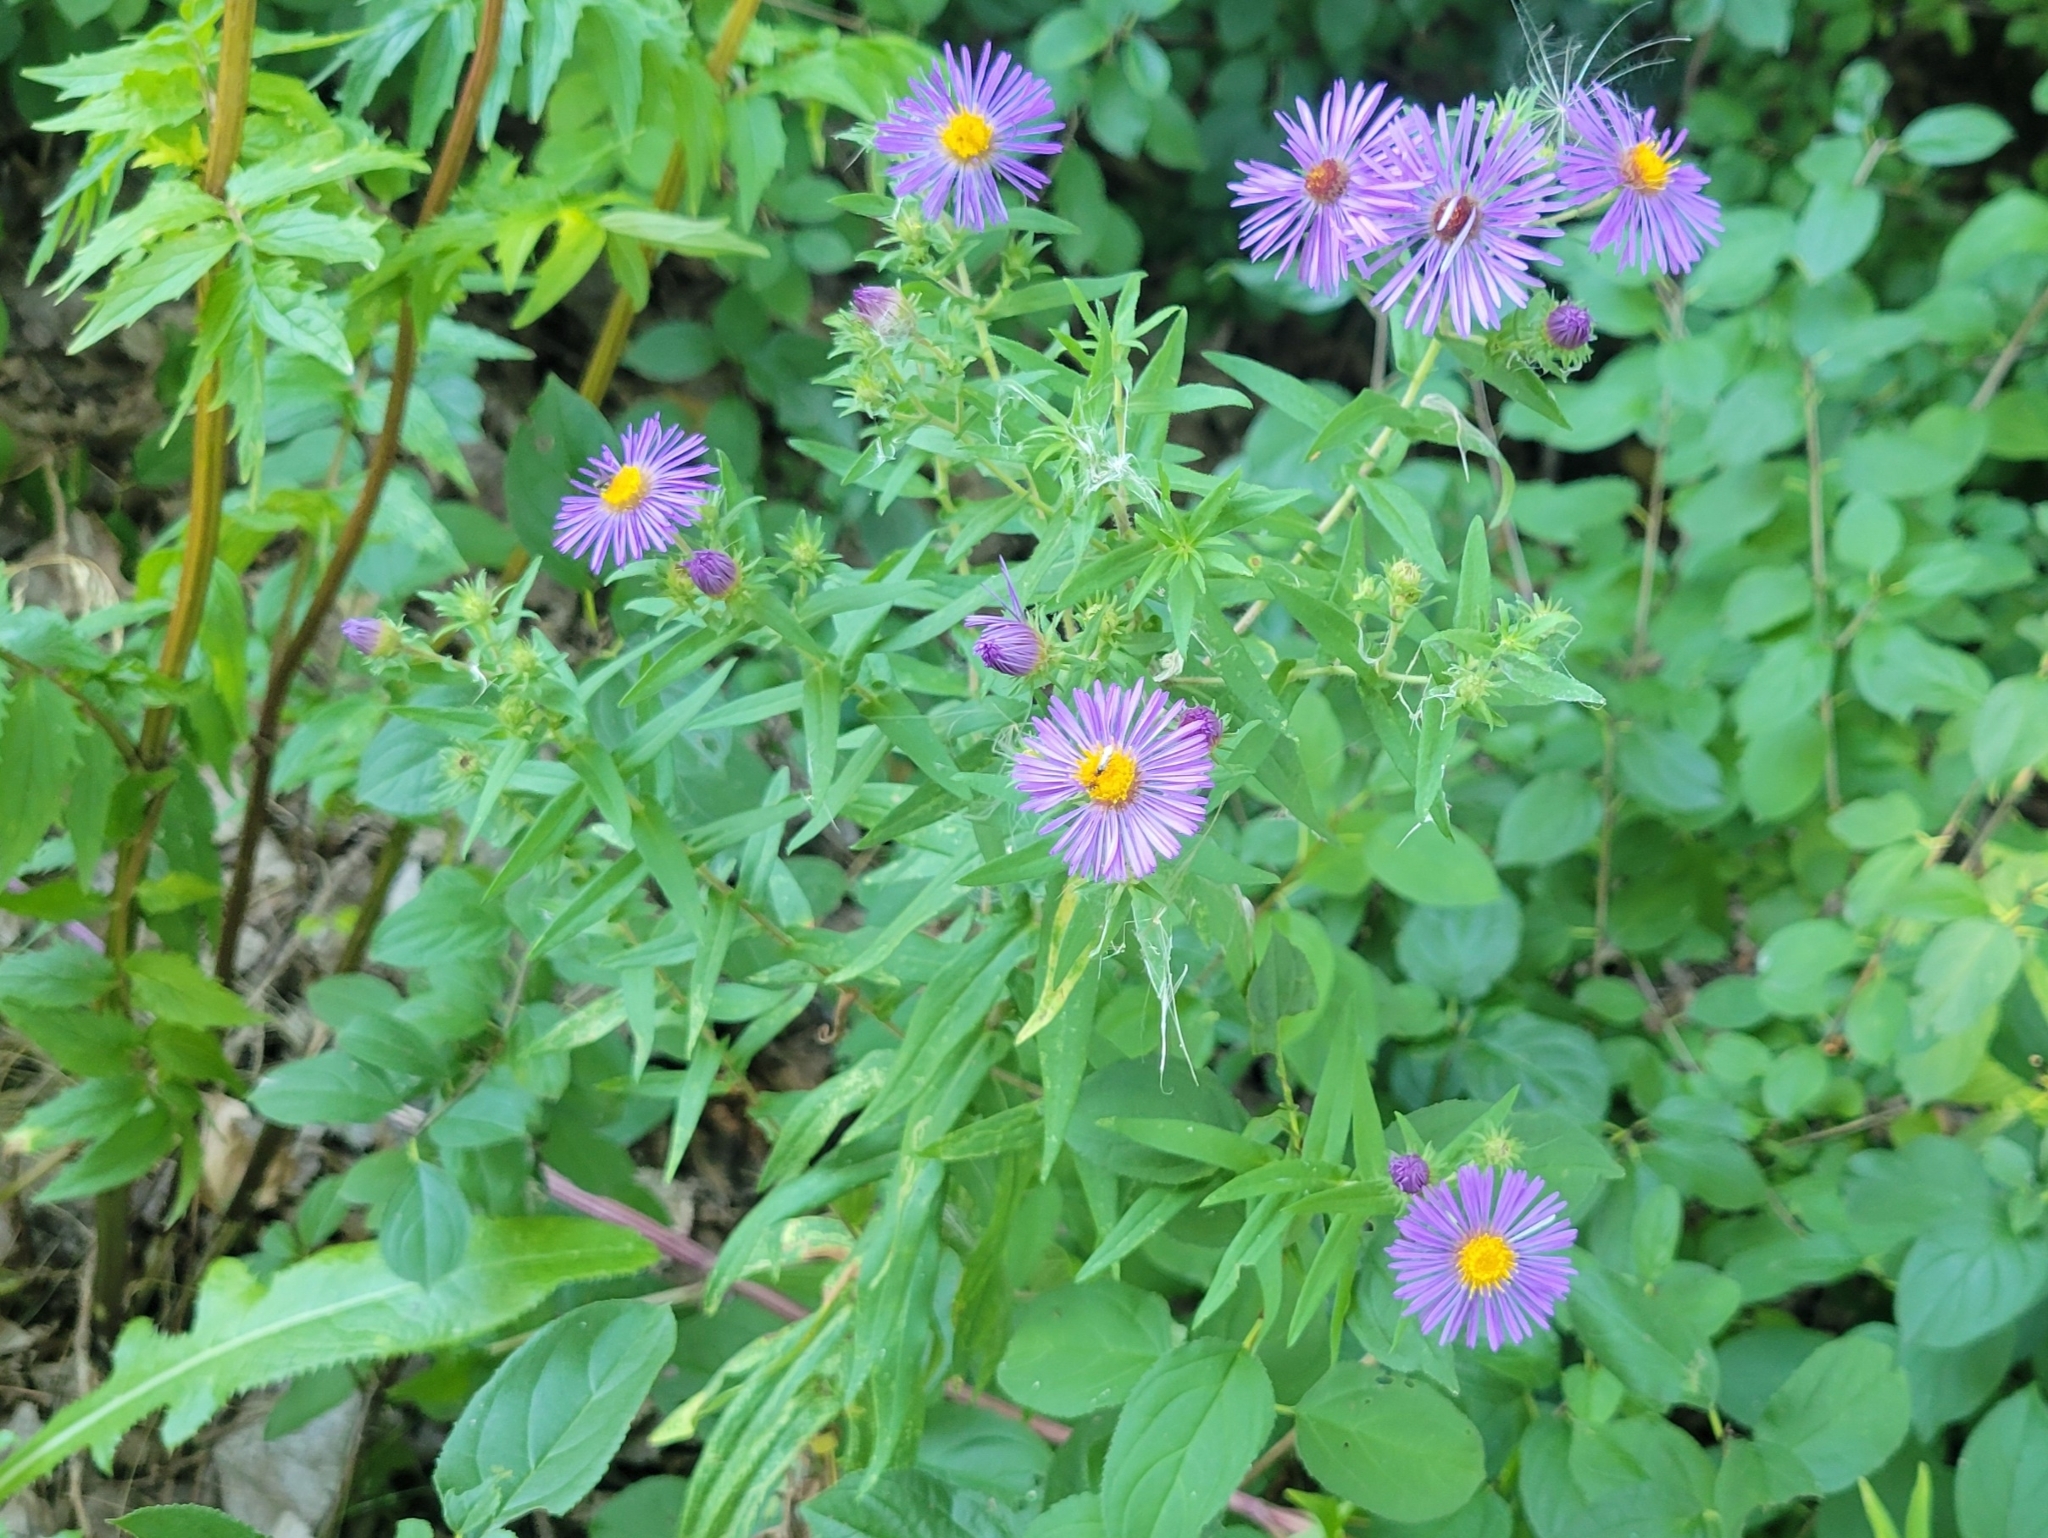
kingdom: Plantae
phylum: Tracheophyta
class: Magnoliopsida
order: Asterales
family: Asteraceae
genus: Symphyotrichum
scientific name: Symphyotrichum novae-angliae
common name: Michaelmas daisy
